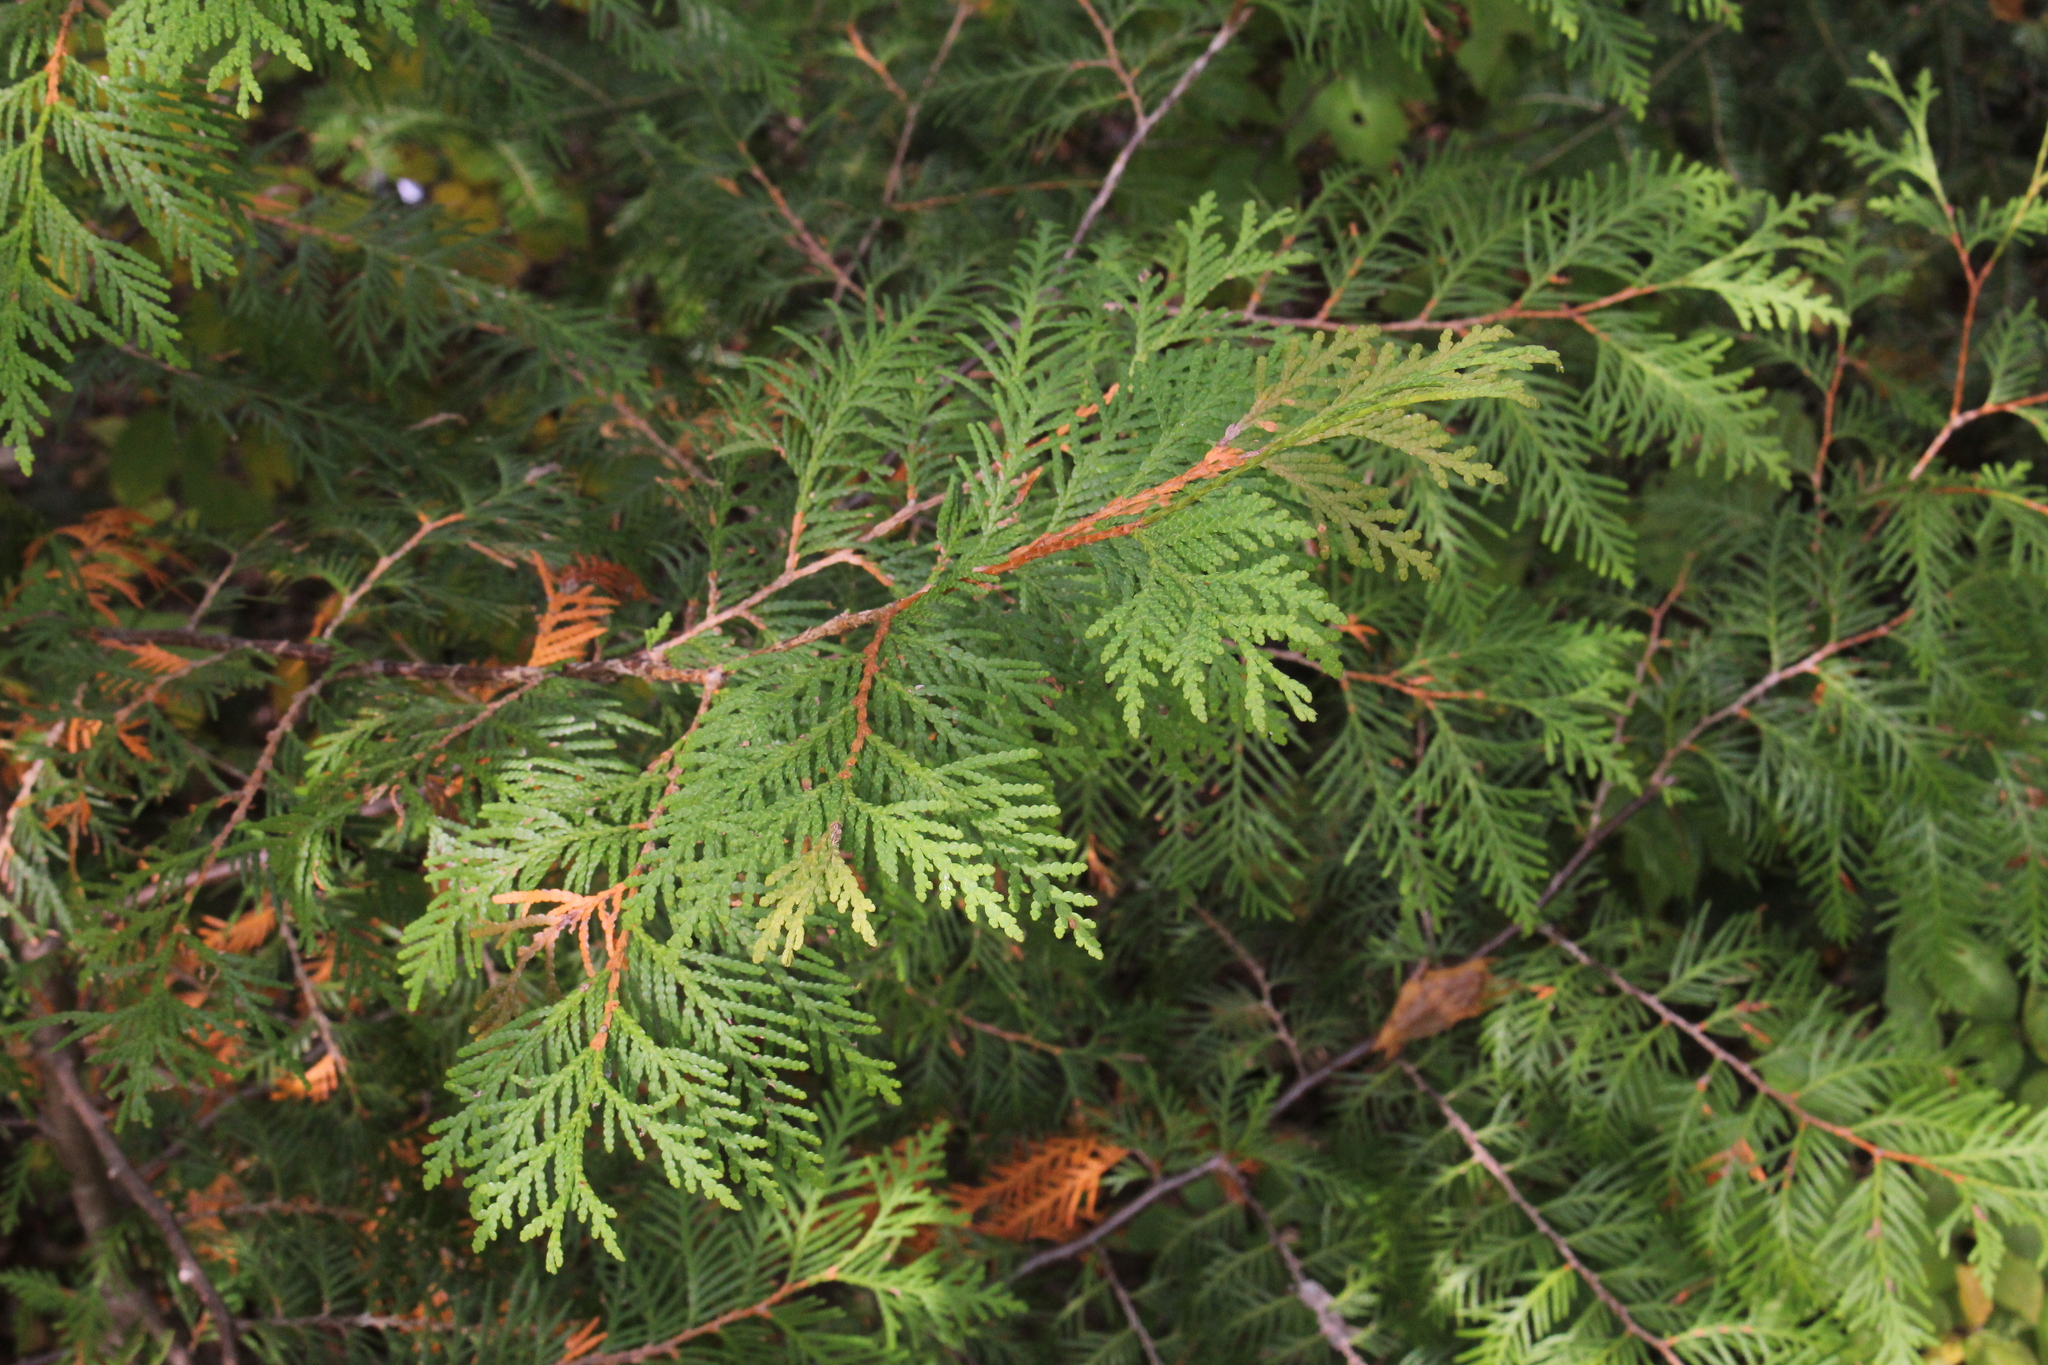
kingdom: Plantae
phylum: Tracheophyta
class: Pinopsida
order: Pinales
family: Cupressaceae
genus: Thuja
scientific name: Thuja occidentalis
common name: Northern white-cedar
